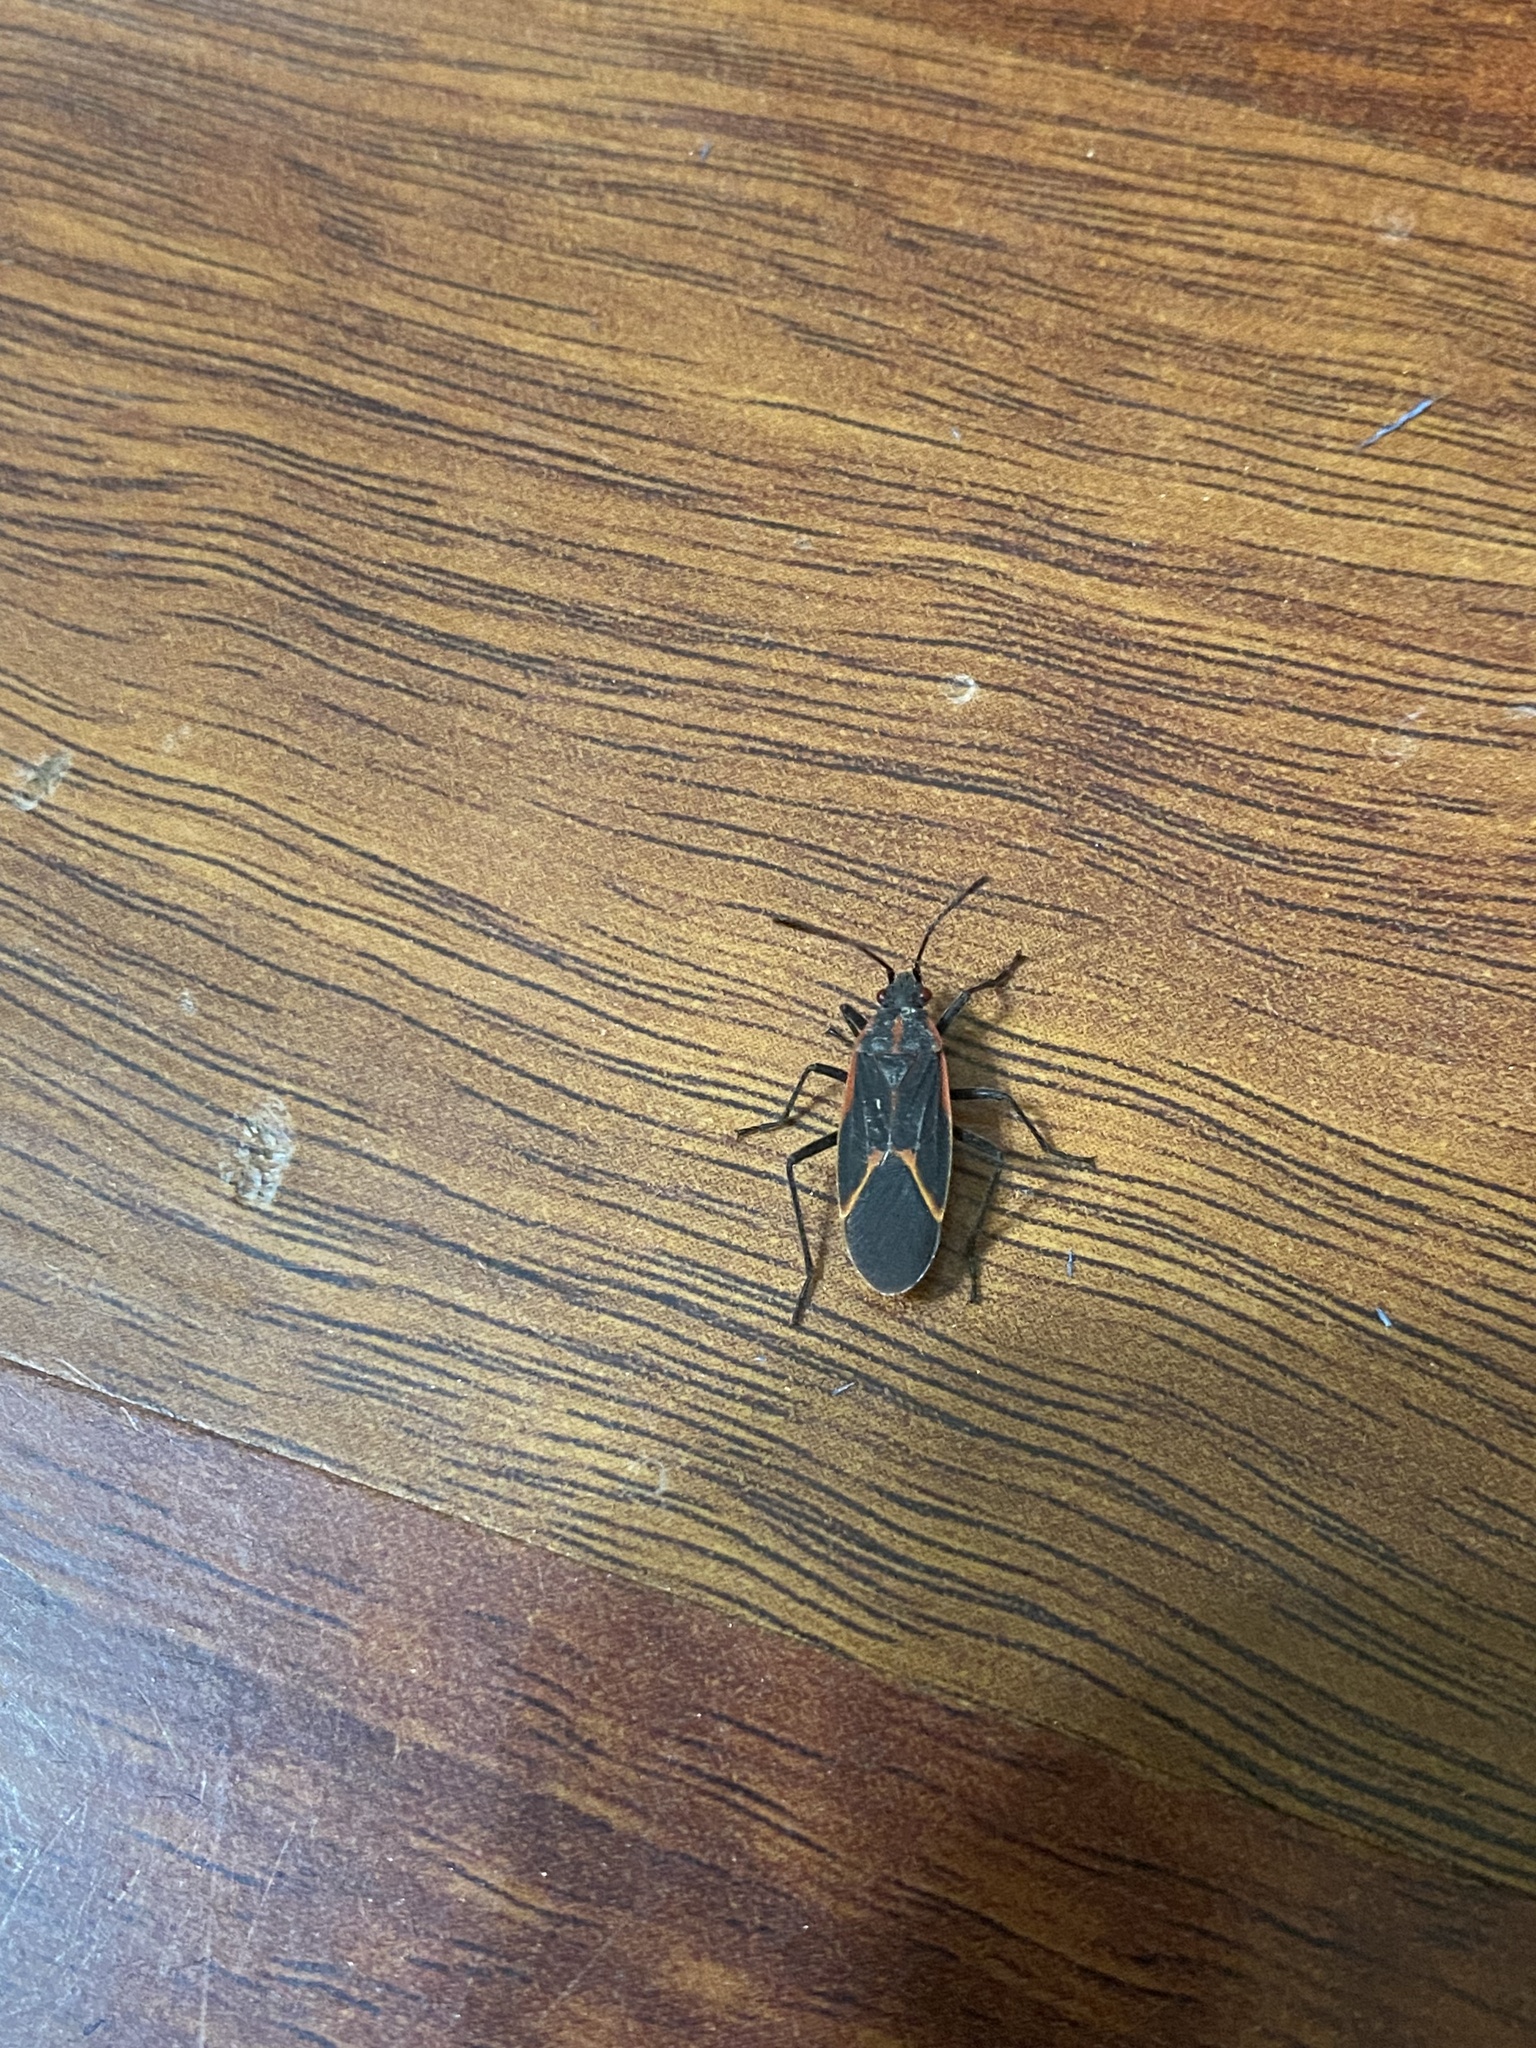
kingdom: Animalia
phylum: Arthropoda
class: Insecta
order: Hemiptera
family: Rhopalidae
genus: Boisea
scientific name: Boisea trivittata
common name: Boxelder bug
